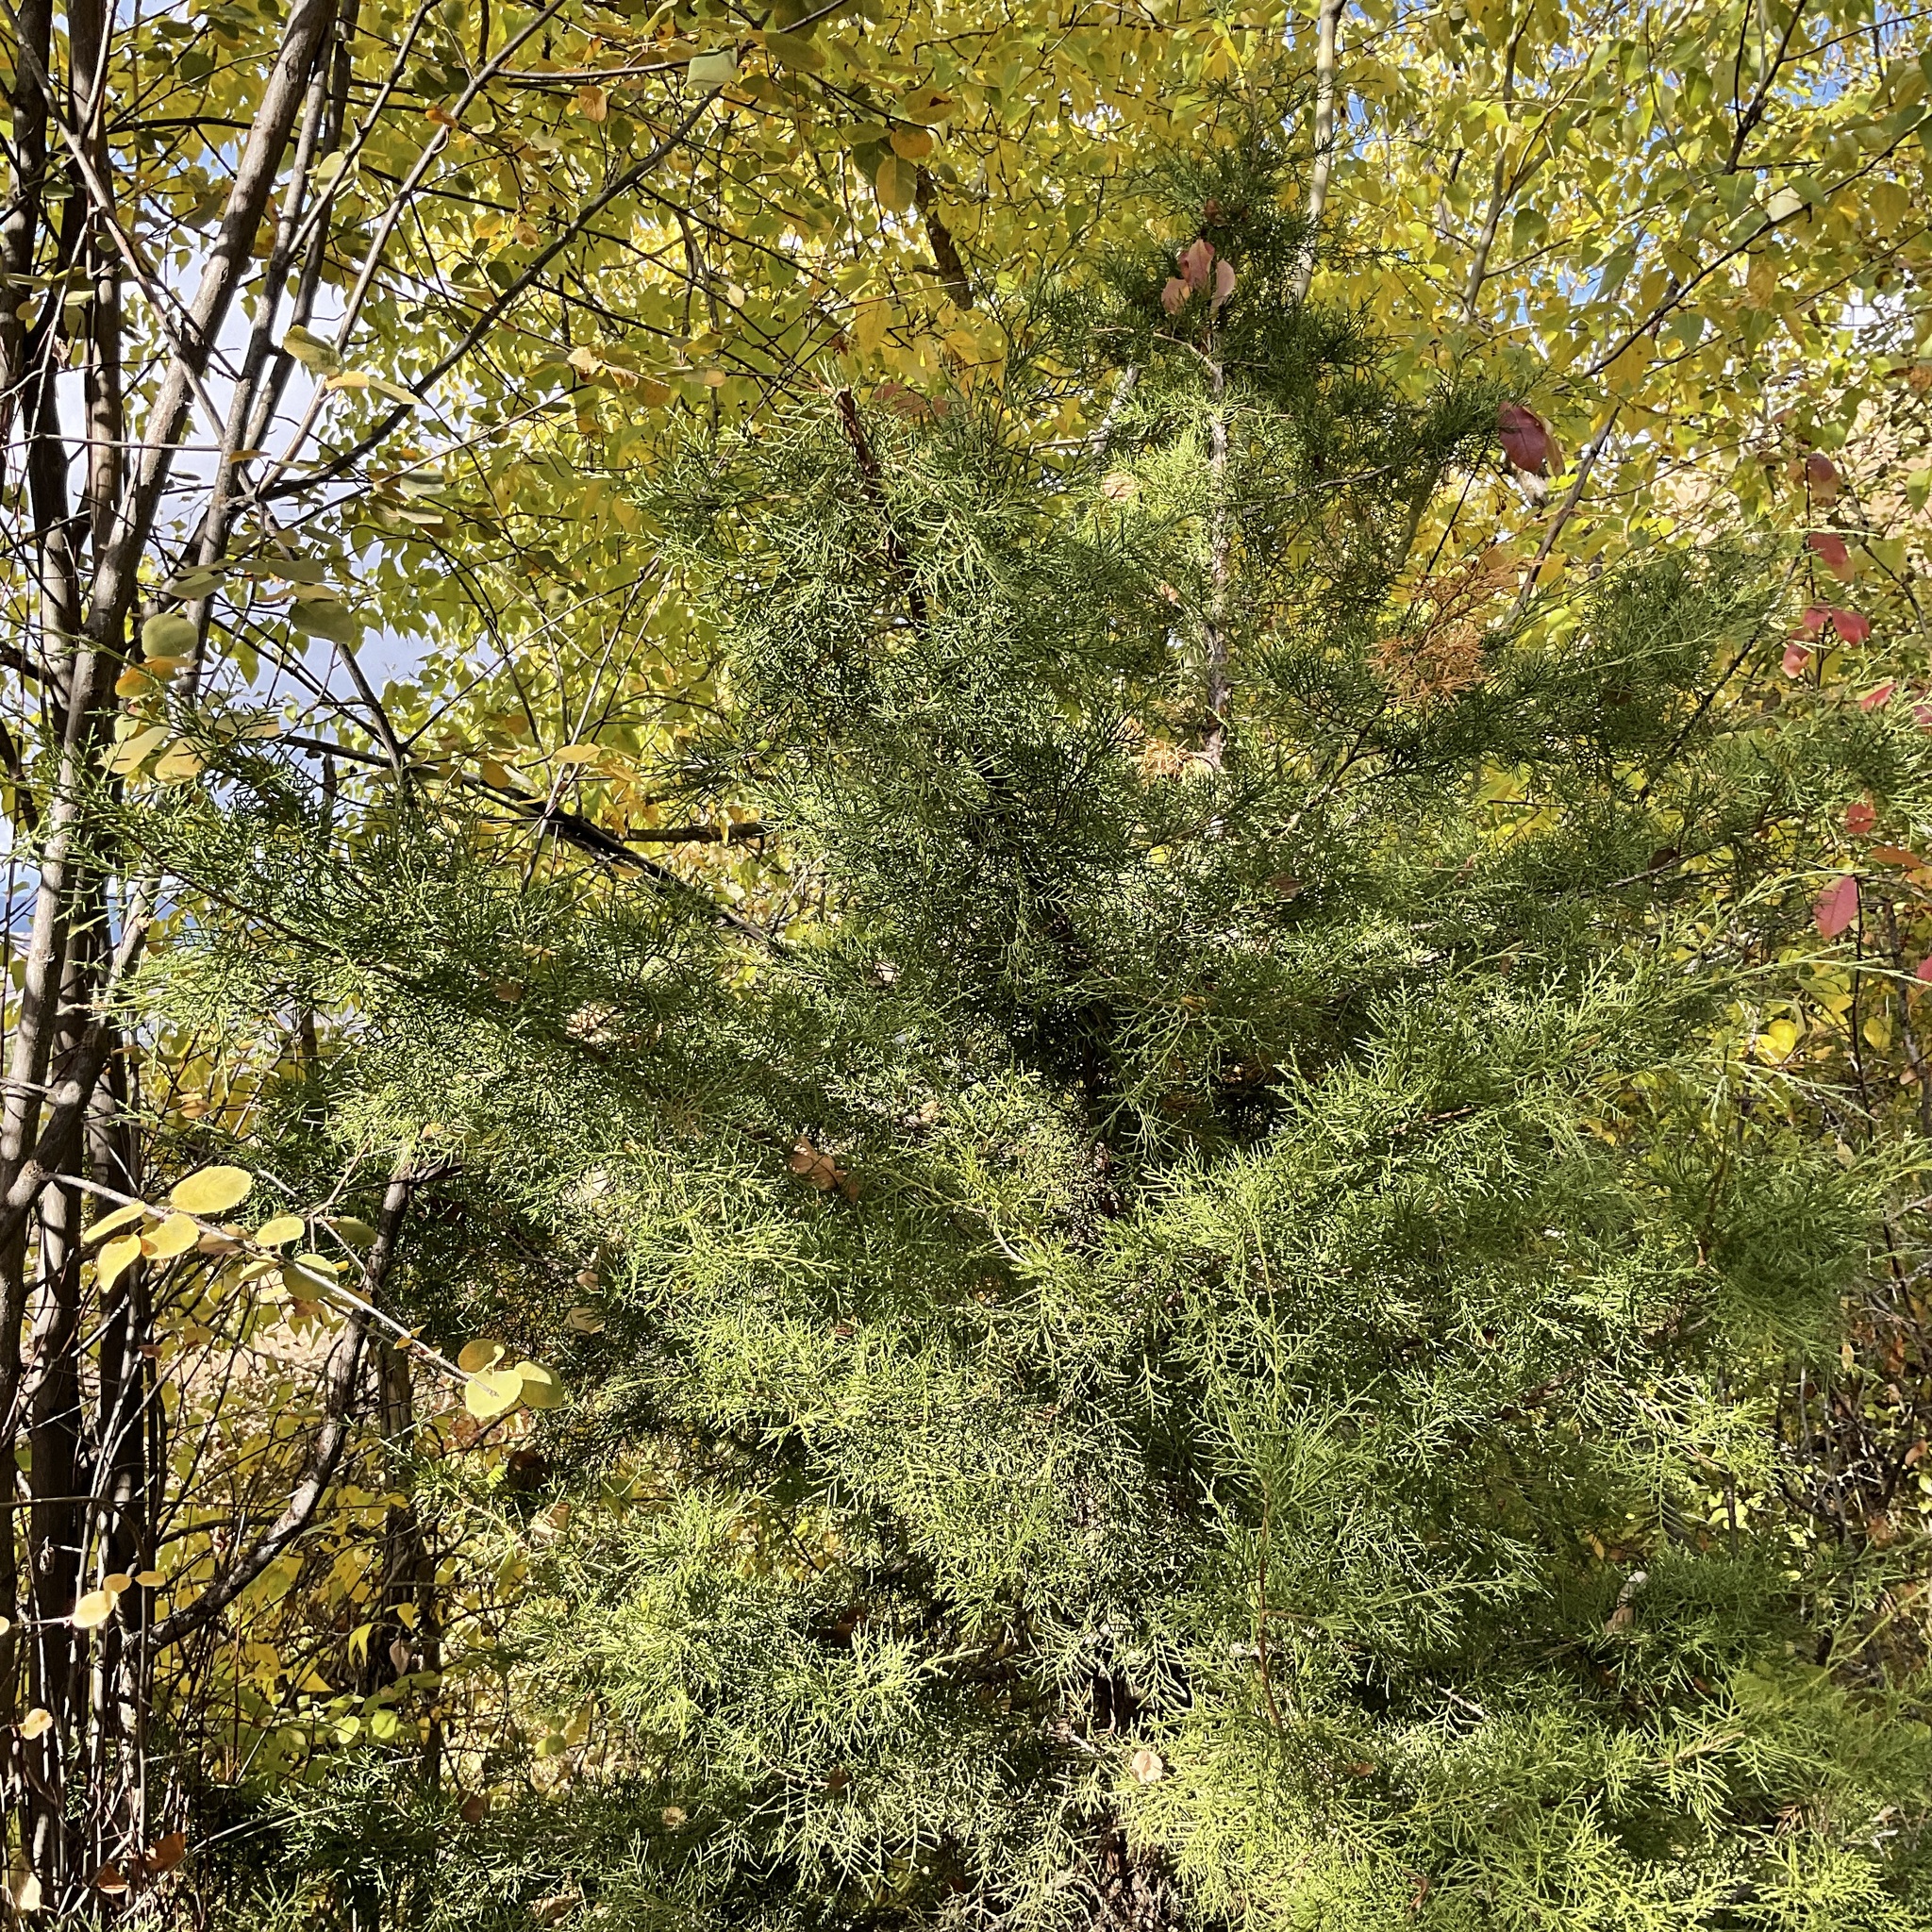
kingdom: Plantae
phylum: Tracheophyta
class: Pinopsida
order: Pinales
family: Cupressaceae
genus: Juniperus
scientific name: Juniperus scopulorum
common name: Rocky mountain juniper
